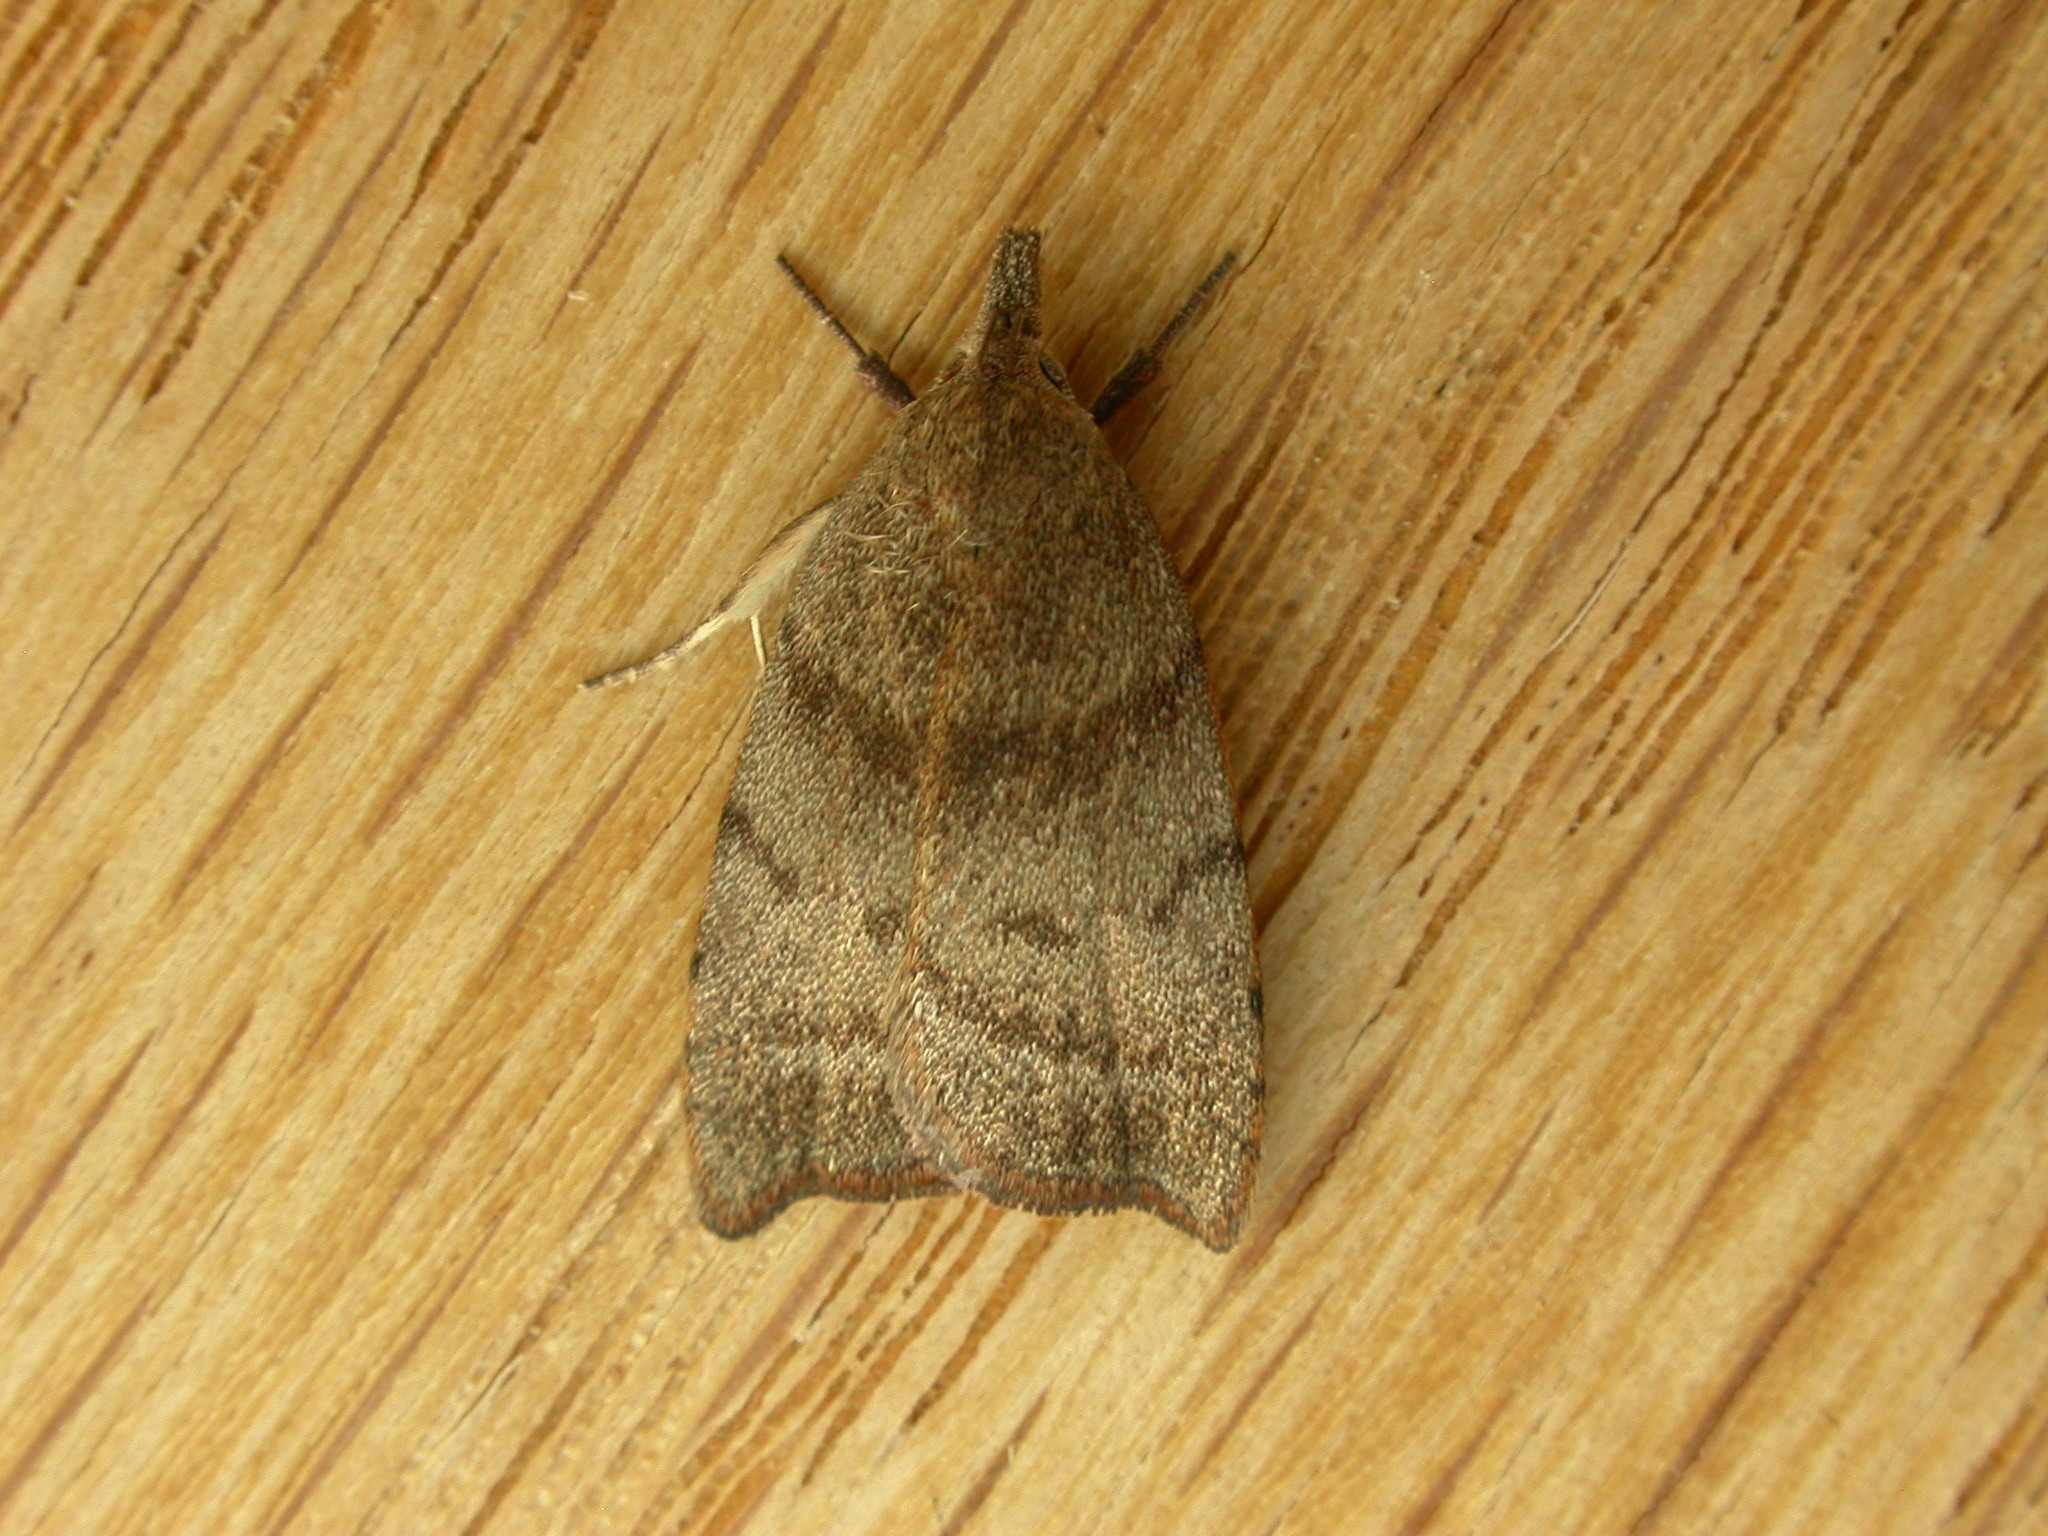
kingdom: Animalia
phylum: Arthropoda
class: Insecta
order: Lepidoptera
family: Oecophoridae
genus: Tortricopsis
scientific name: Tortricopsis euryphanella
